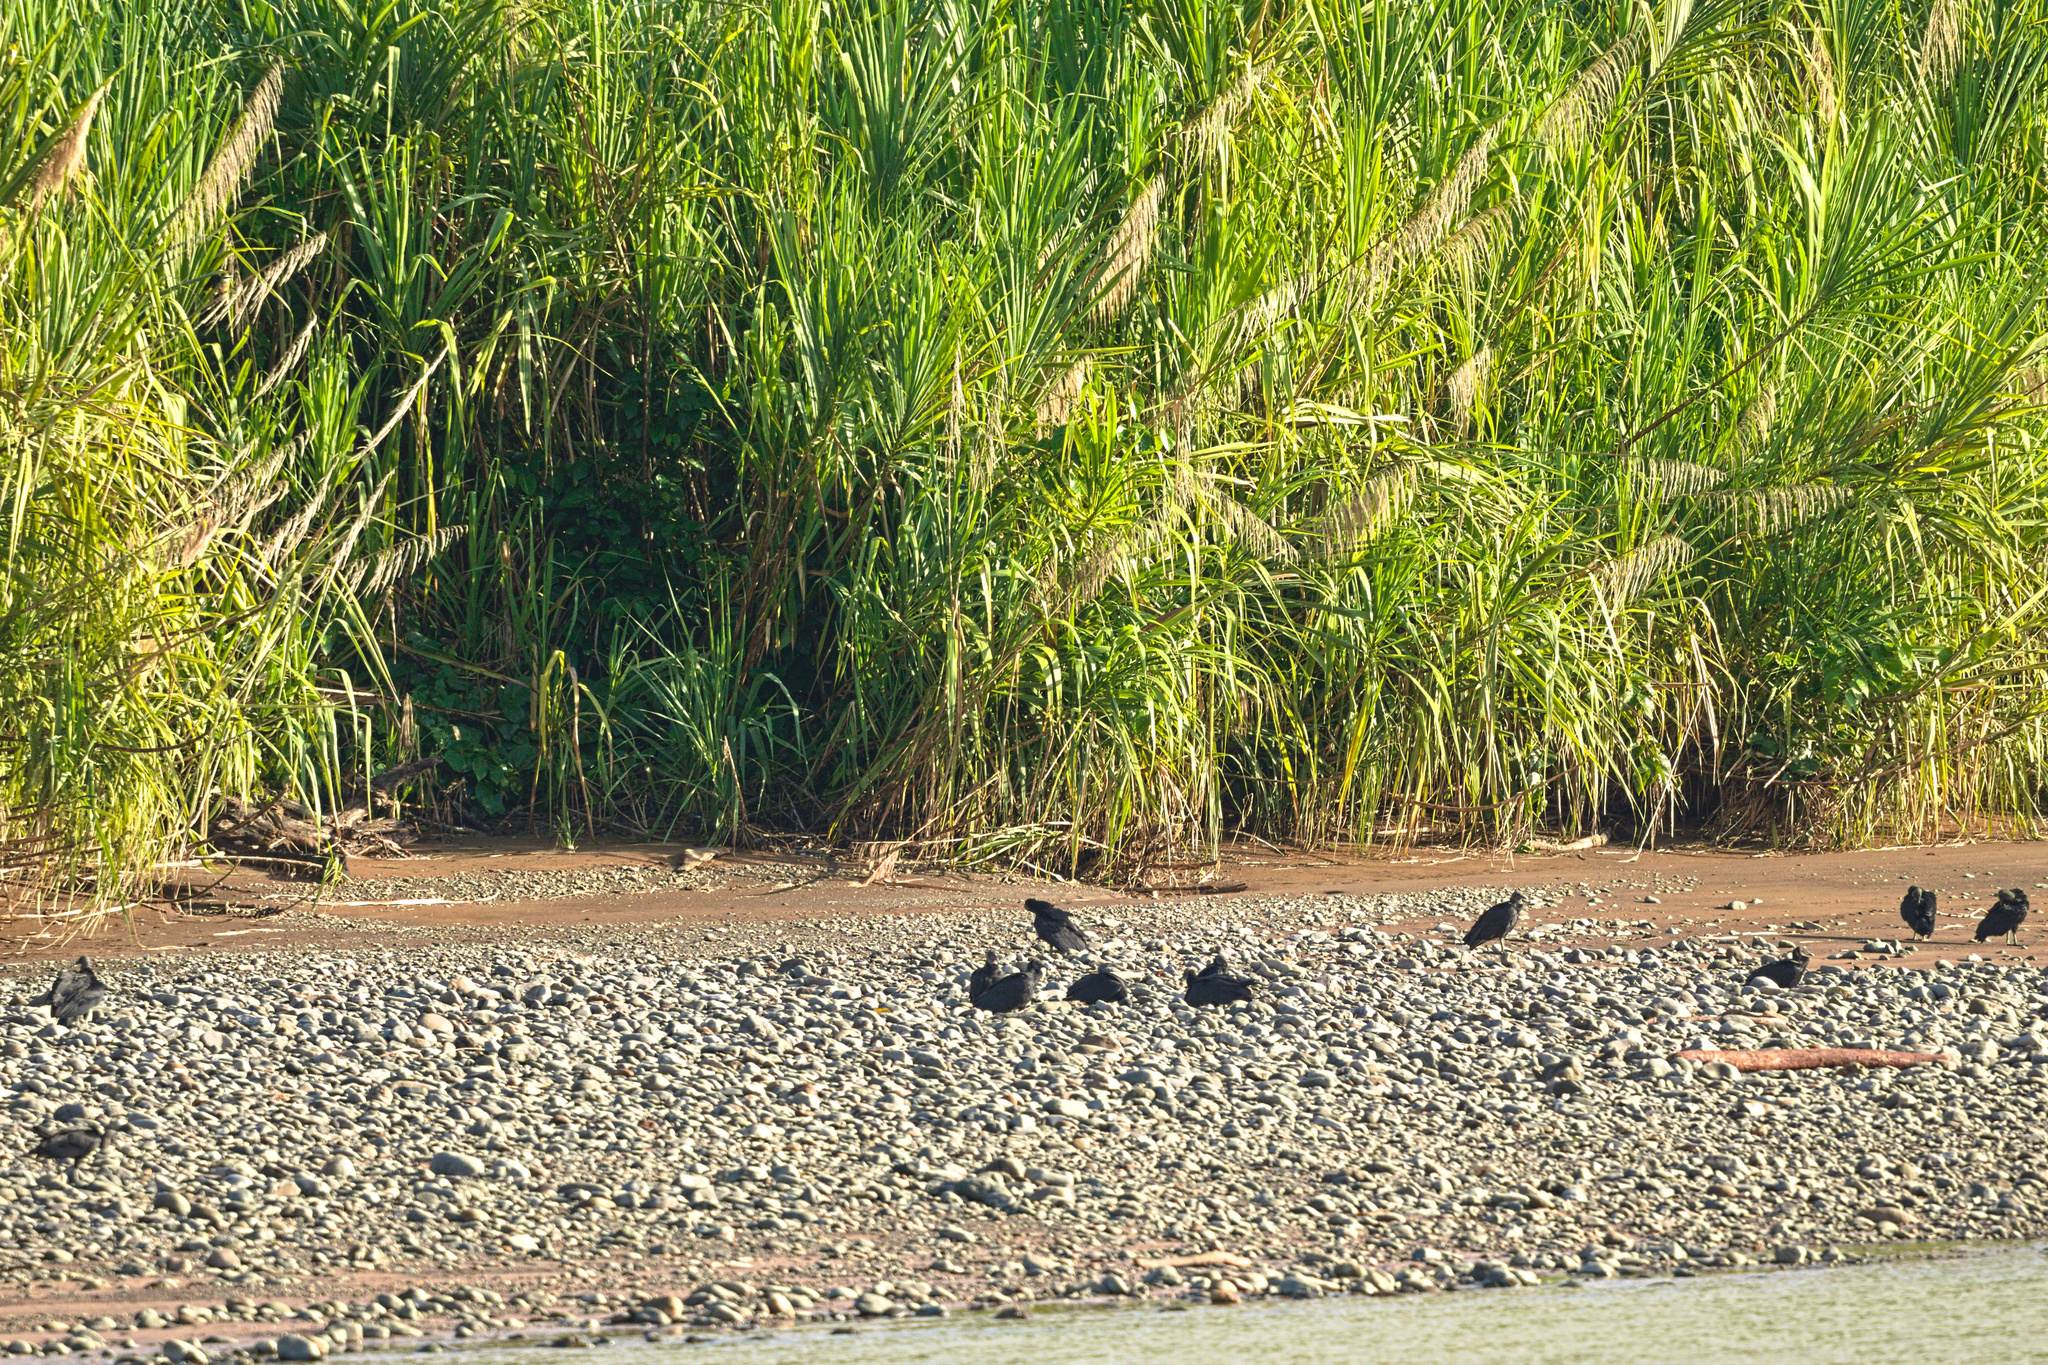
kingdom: Animalia
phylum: Chordata
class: Aves
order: Accipitriformes
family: Cathartidae
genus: Coragyps
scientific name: Coragyps atratus
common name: Black vulture
